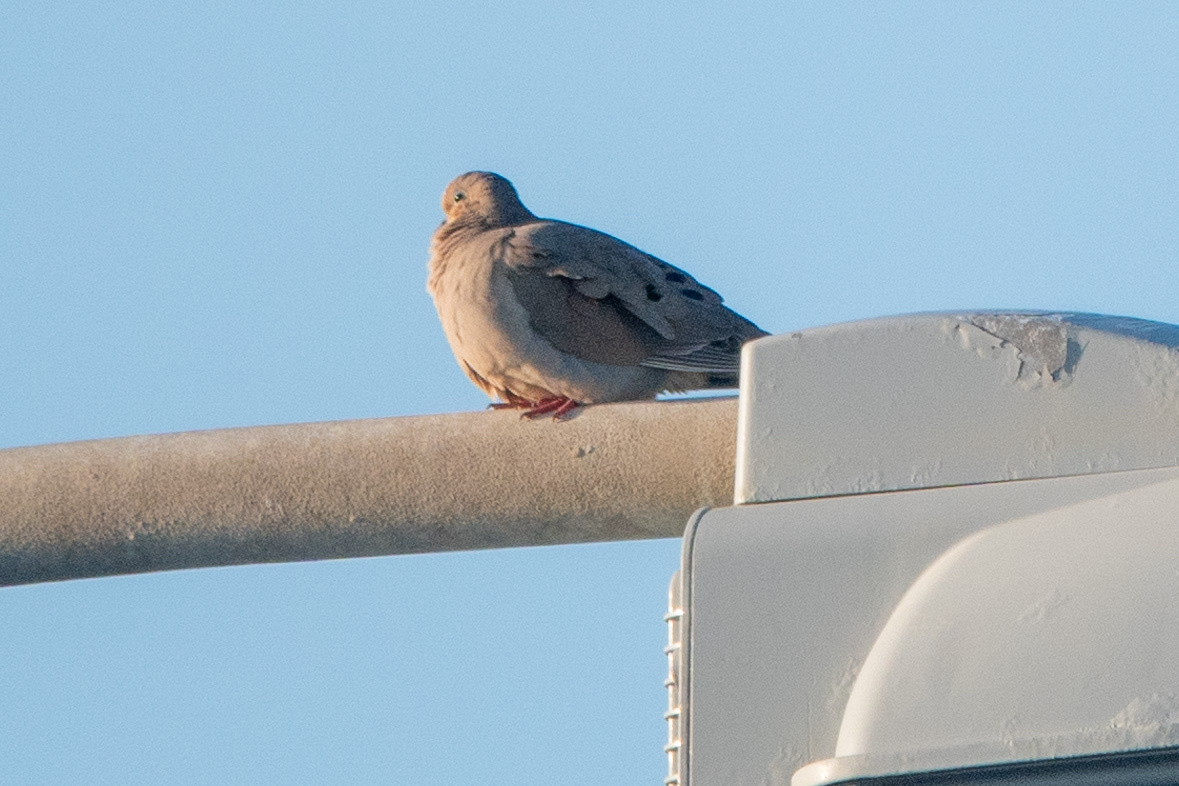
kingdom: Animalia
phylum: Chordata
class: Aves
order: Columbiformes
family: Columbidae
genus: Zenaida
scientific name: Zenaida macroura
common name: Mourning dove
